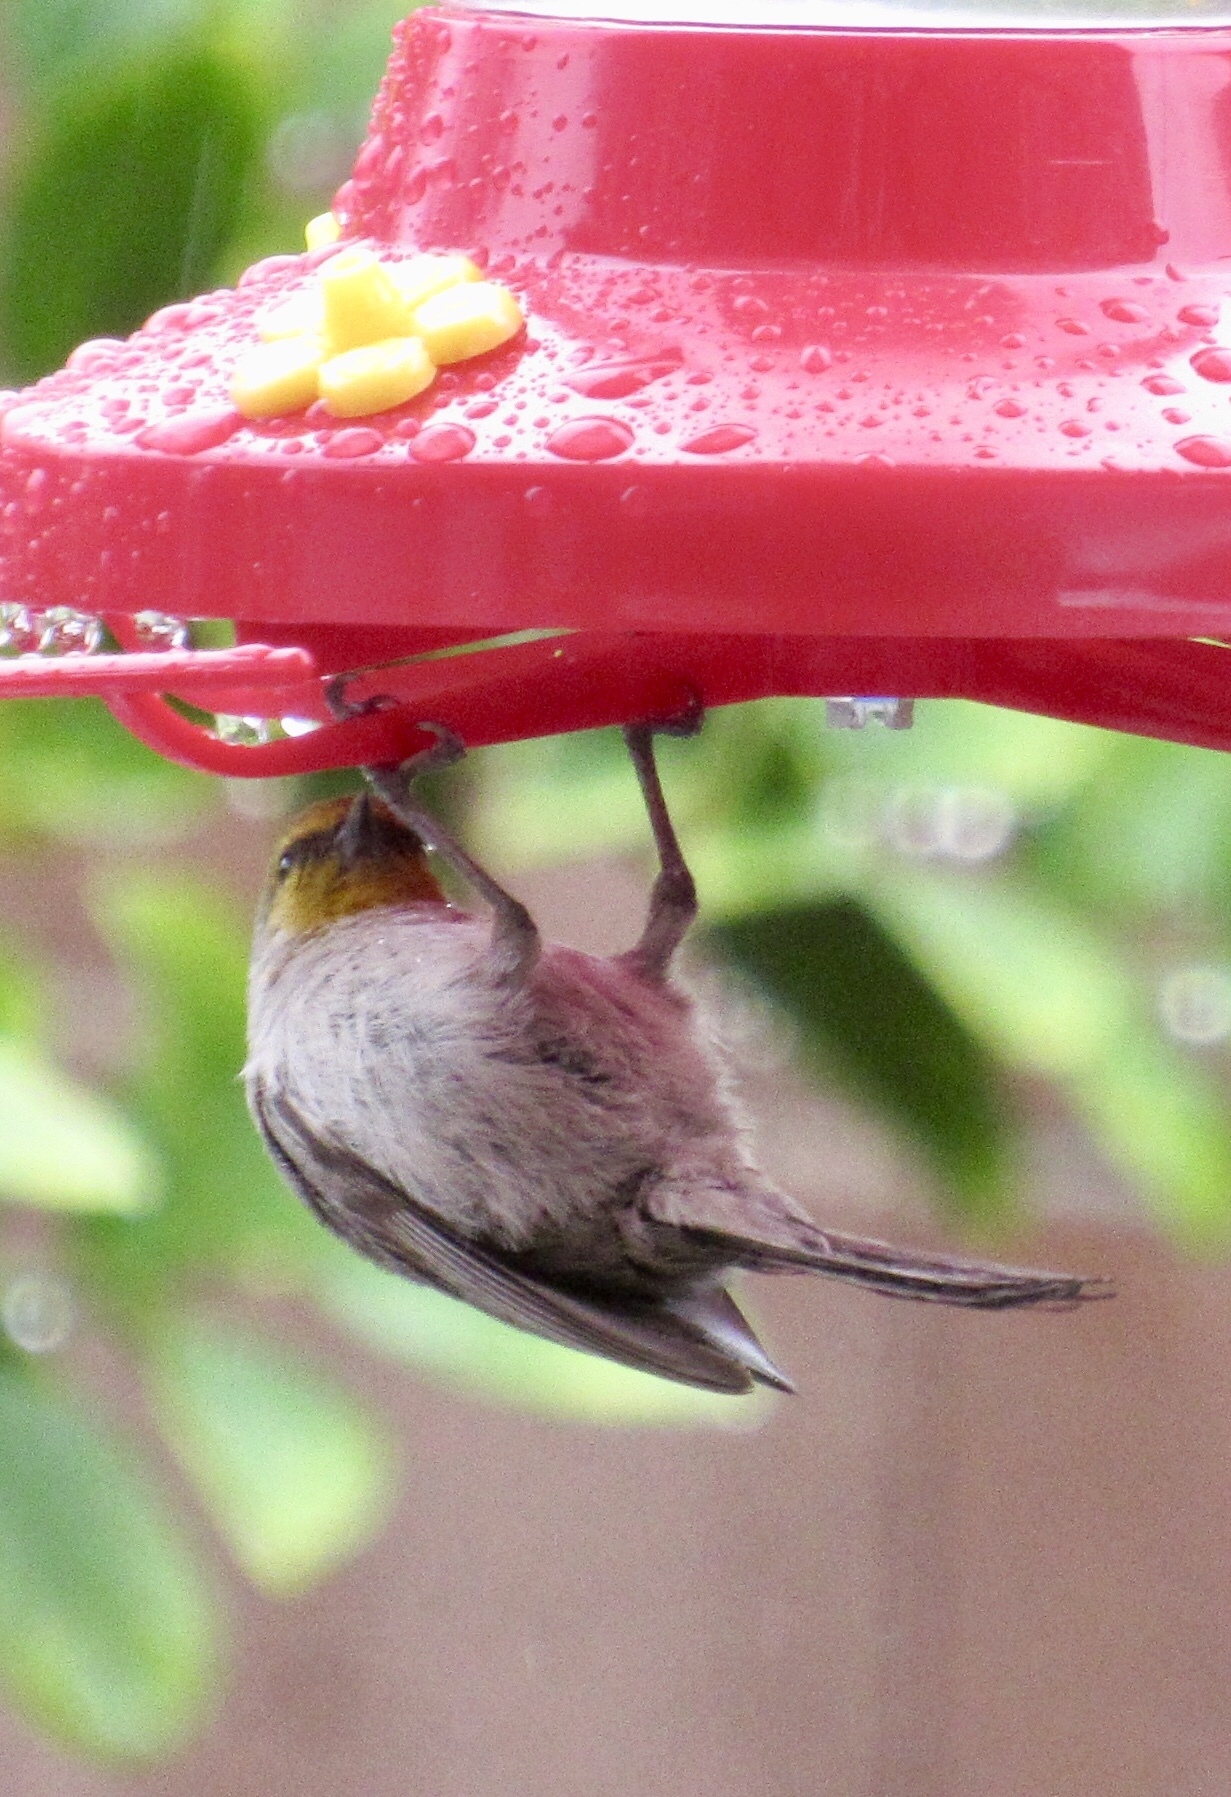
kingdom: Animalia
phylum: Chordata
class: Aves
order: Passeriformes
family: Remizidae
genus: Auriparus
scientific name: Auriparus flaviceps
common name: Verdin
